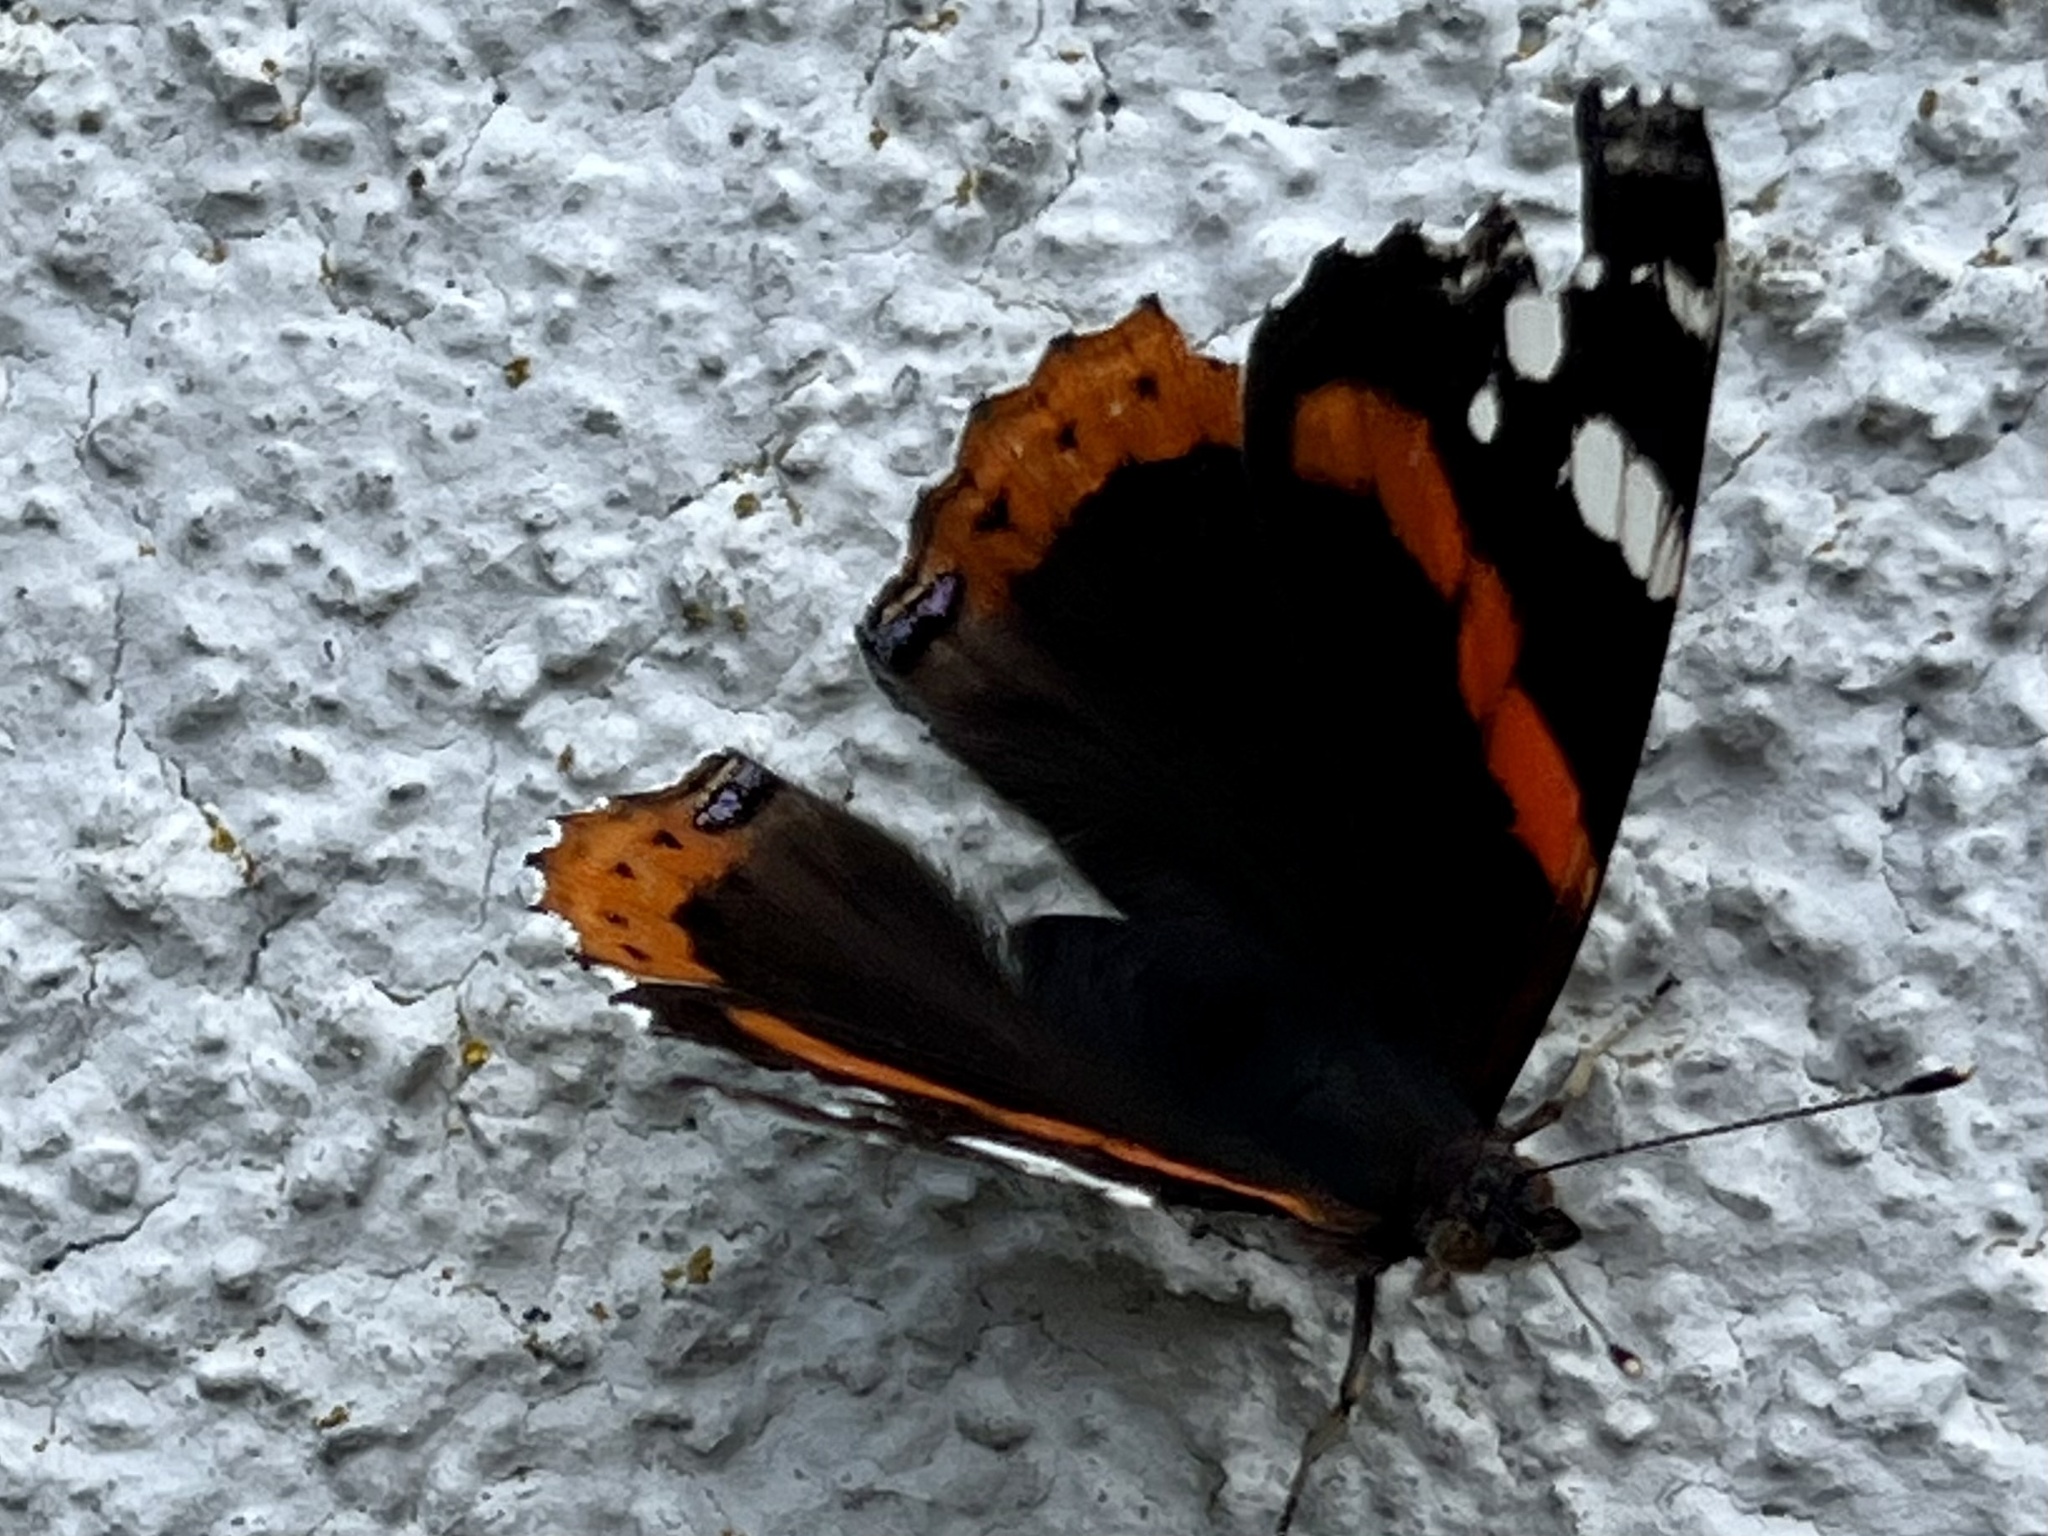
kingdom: Animalia
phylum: Arthropoda
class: Insecta
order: Lepidoptera
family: Nymphalidae
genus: Vanessa
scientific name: Vanessa atalanta
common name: Red admiral
